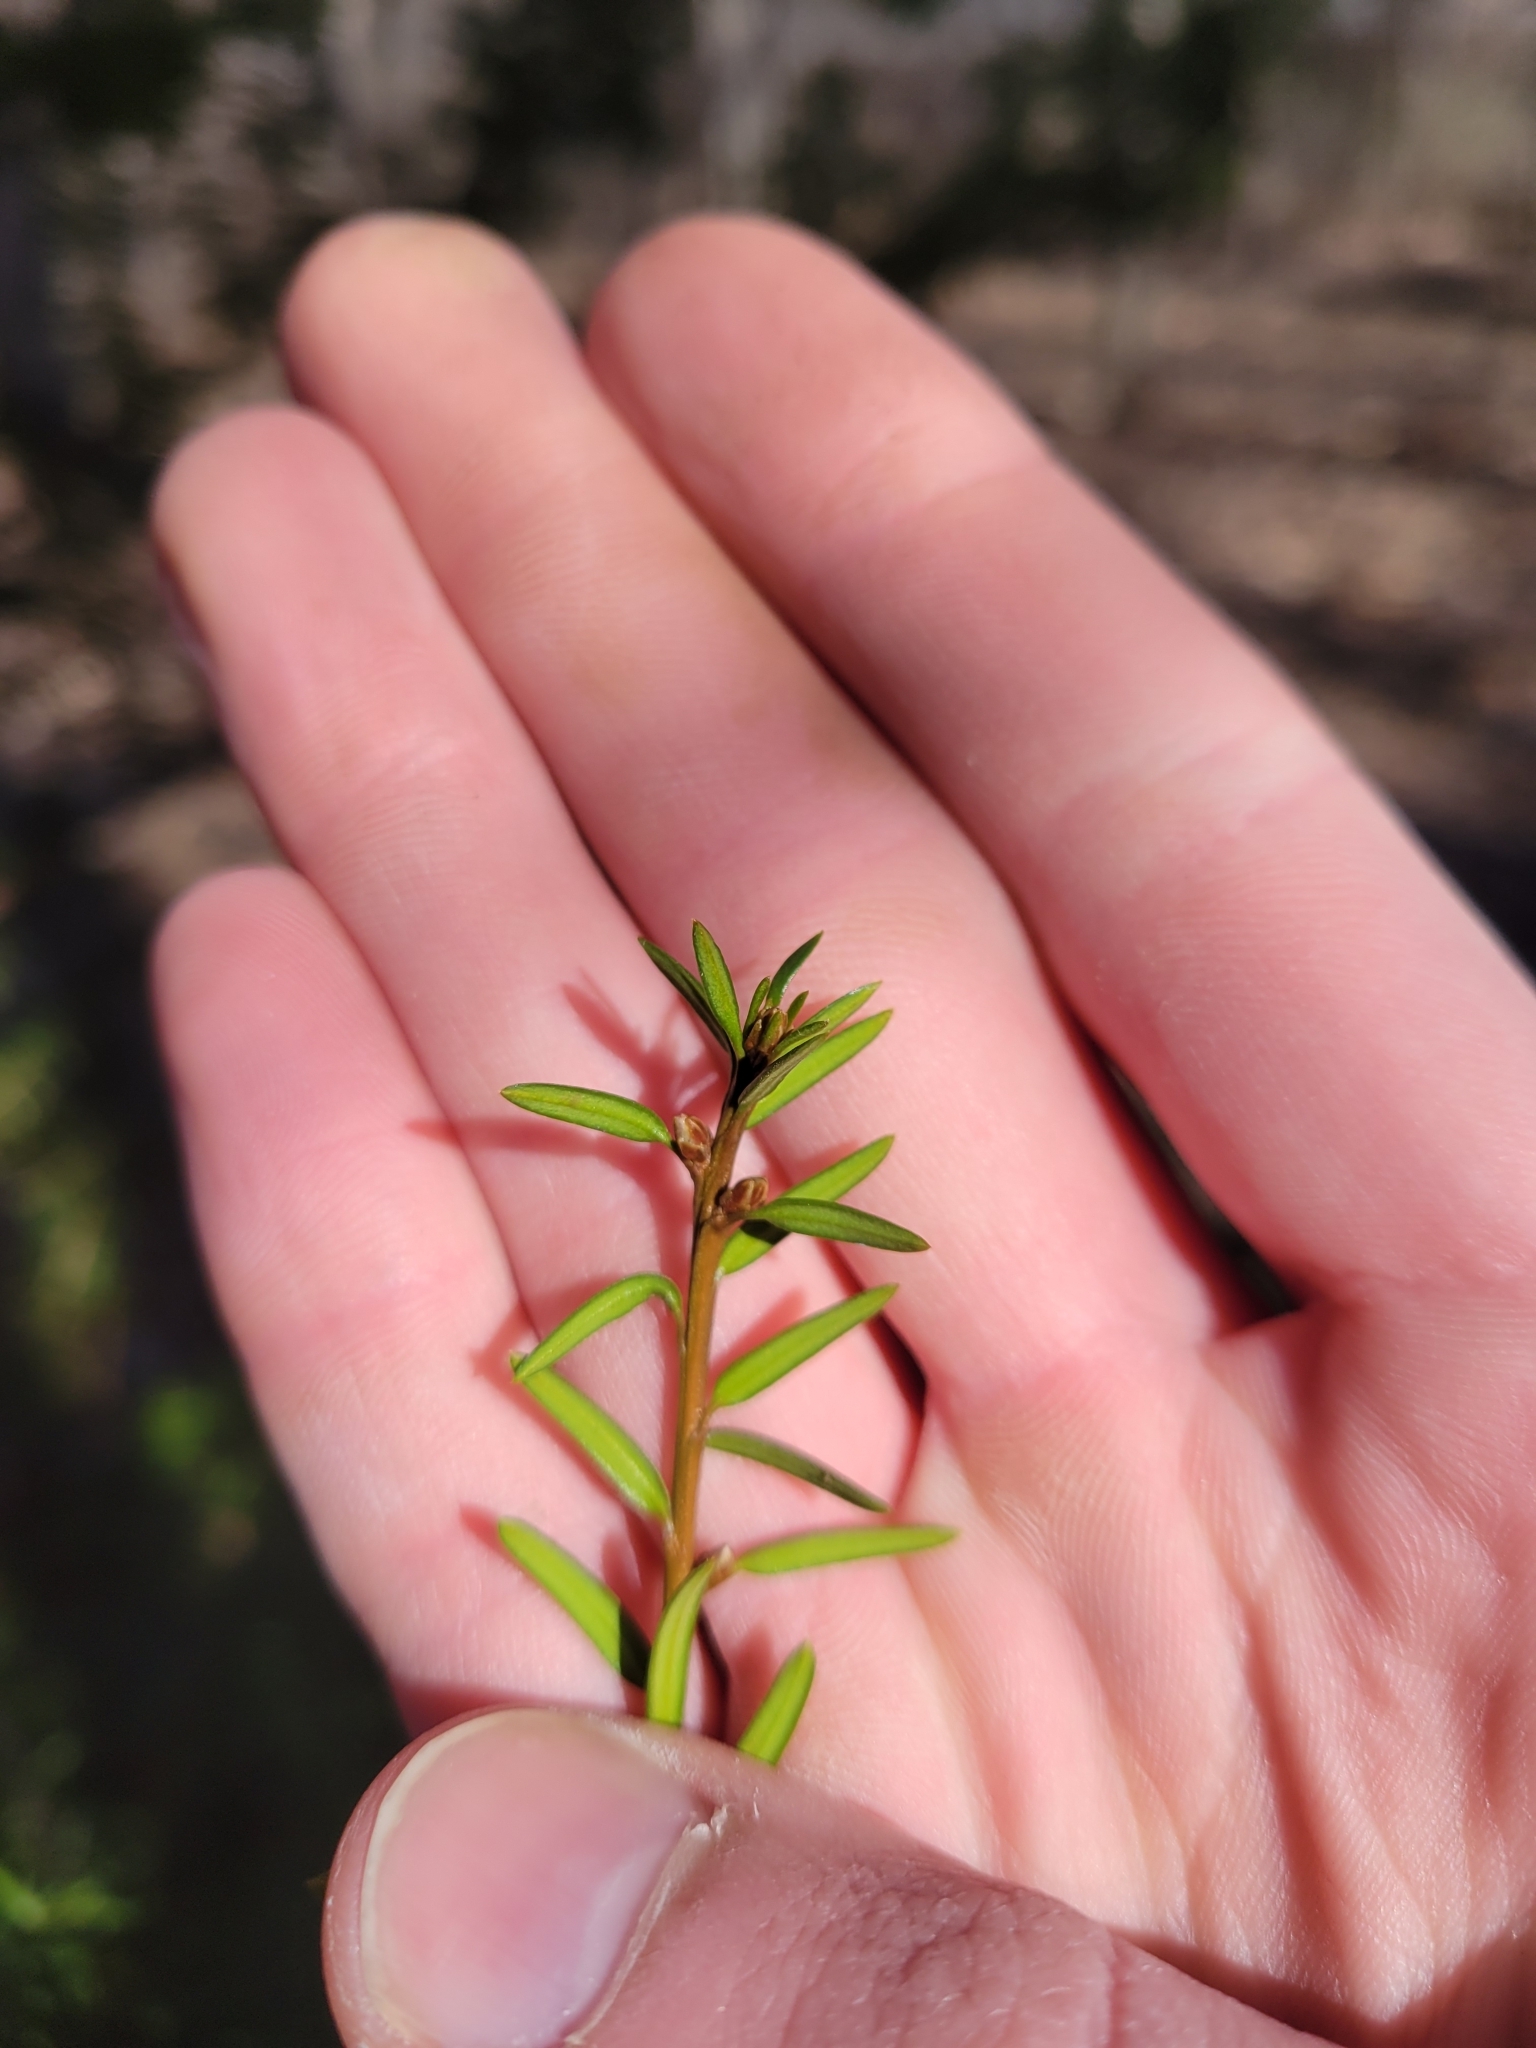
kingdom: Plantae
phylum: Tracheophyta
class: Pinopsida
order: Pinales
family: Taxaceae
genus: Taxus
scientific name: Taxus cuspidata
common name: Japanese yew
